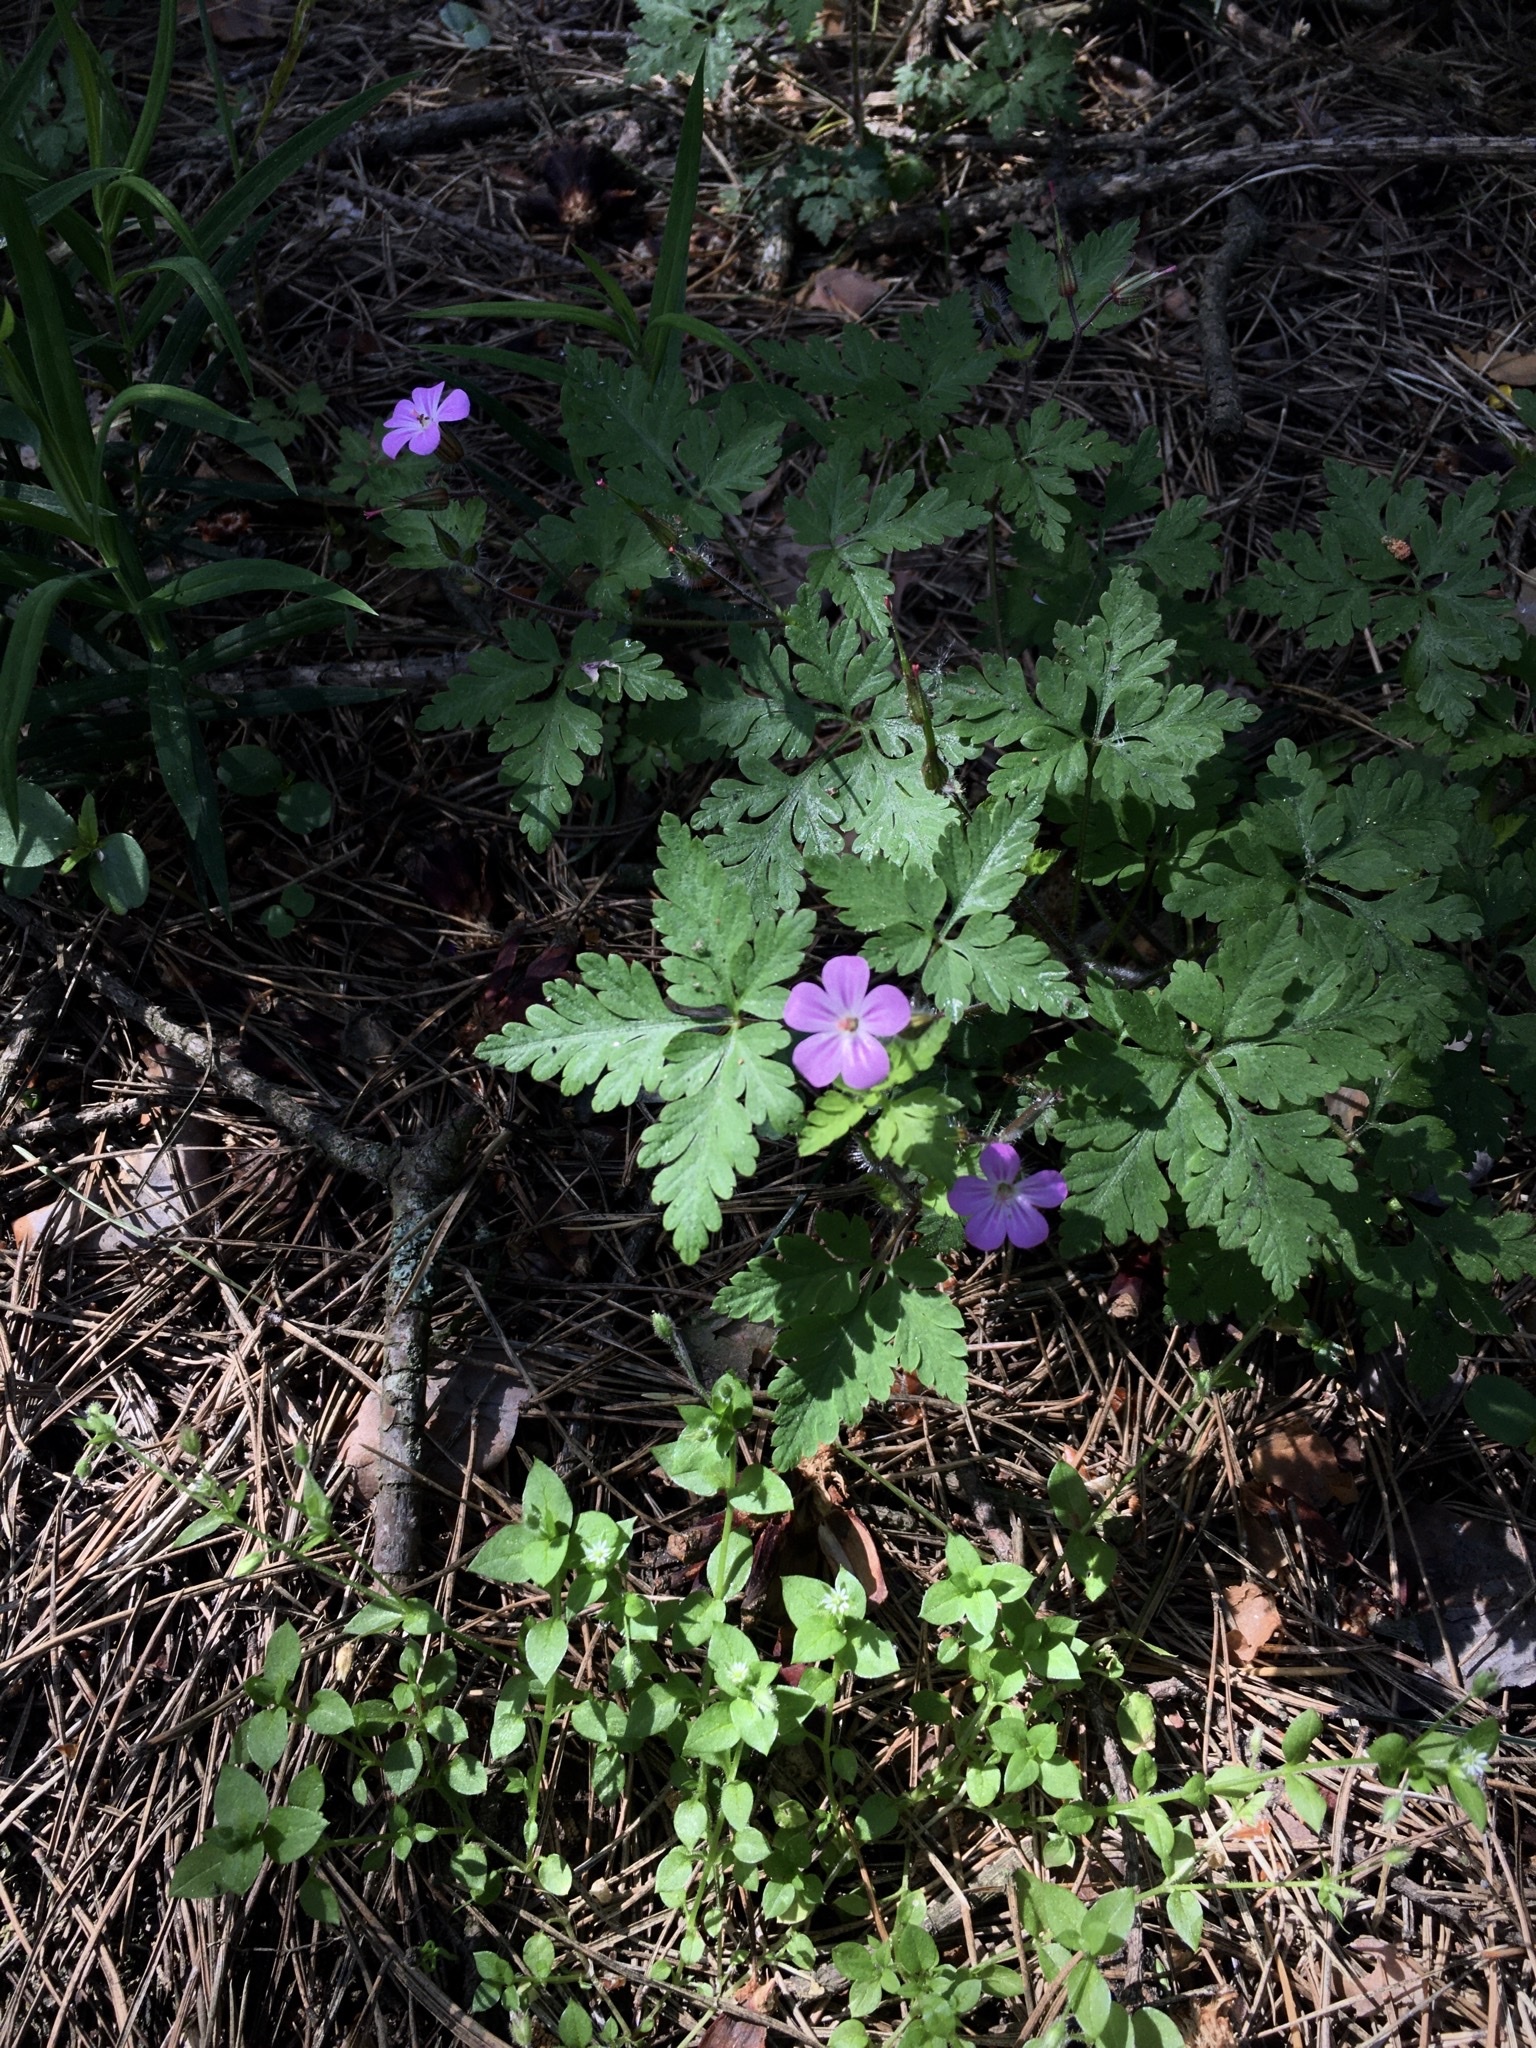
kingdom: Plantae
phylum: Tracheophyta
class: Magnoliopsida
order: Geraniales
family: Geraniaceae
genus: Geranium
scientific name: Geranium robertianum
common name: Herb-robert
